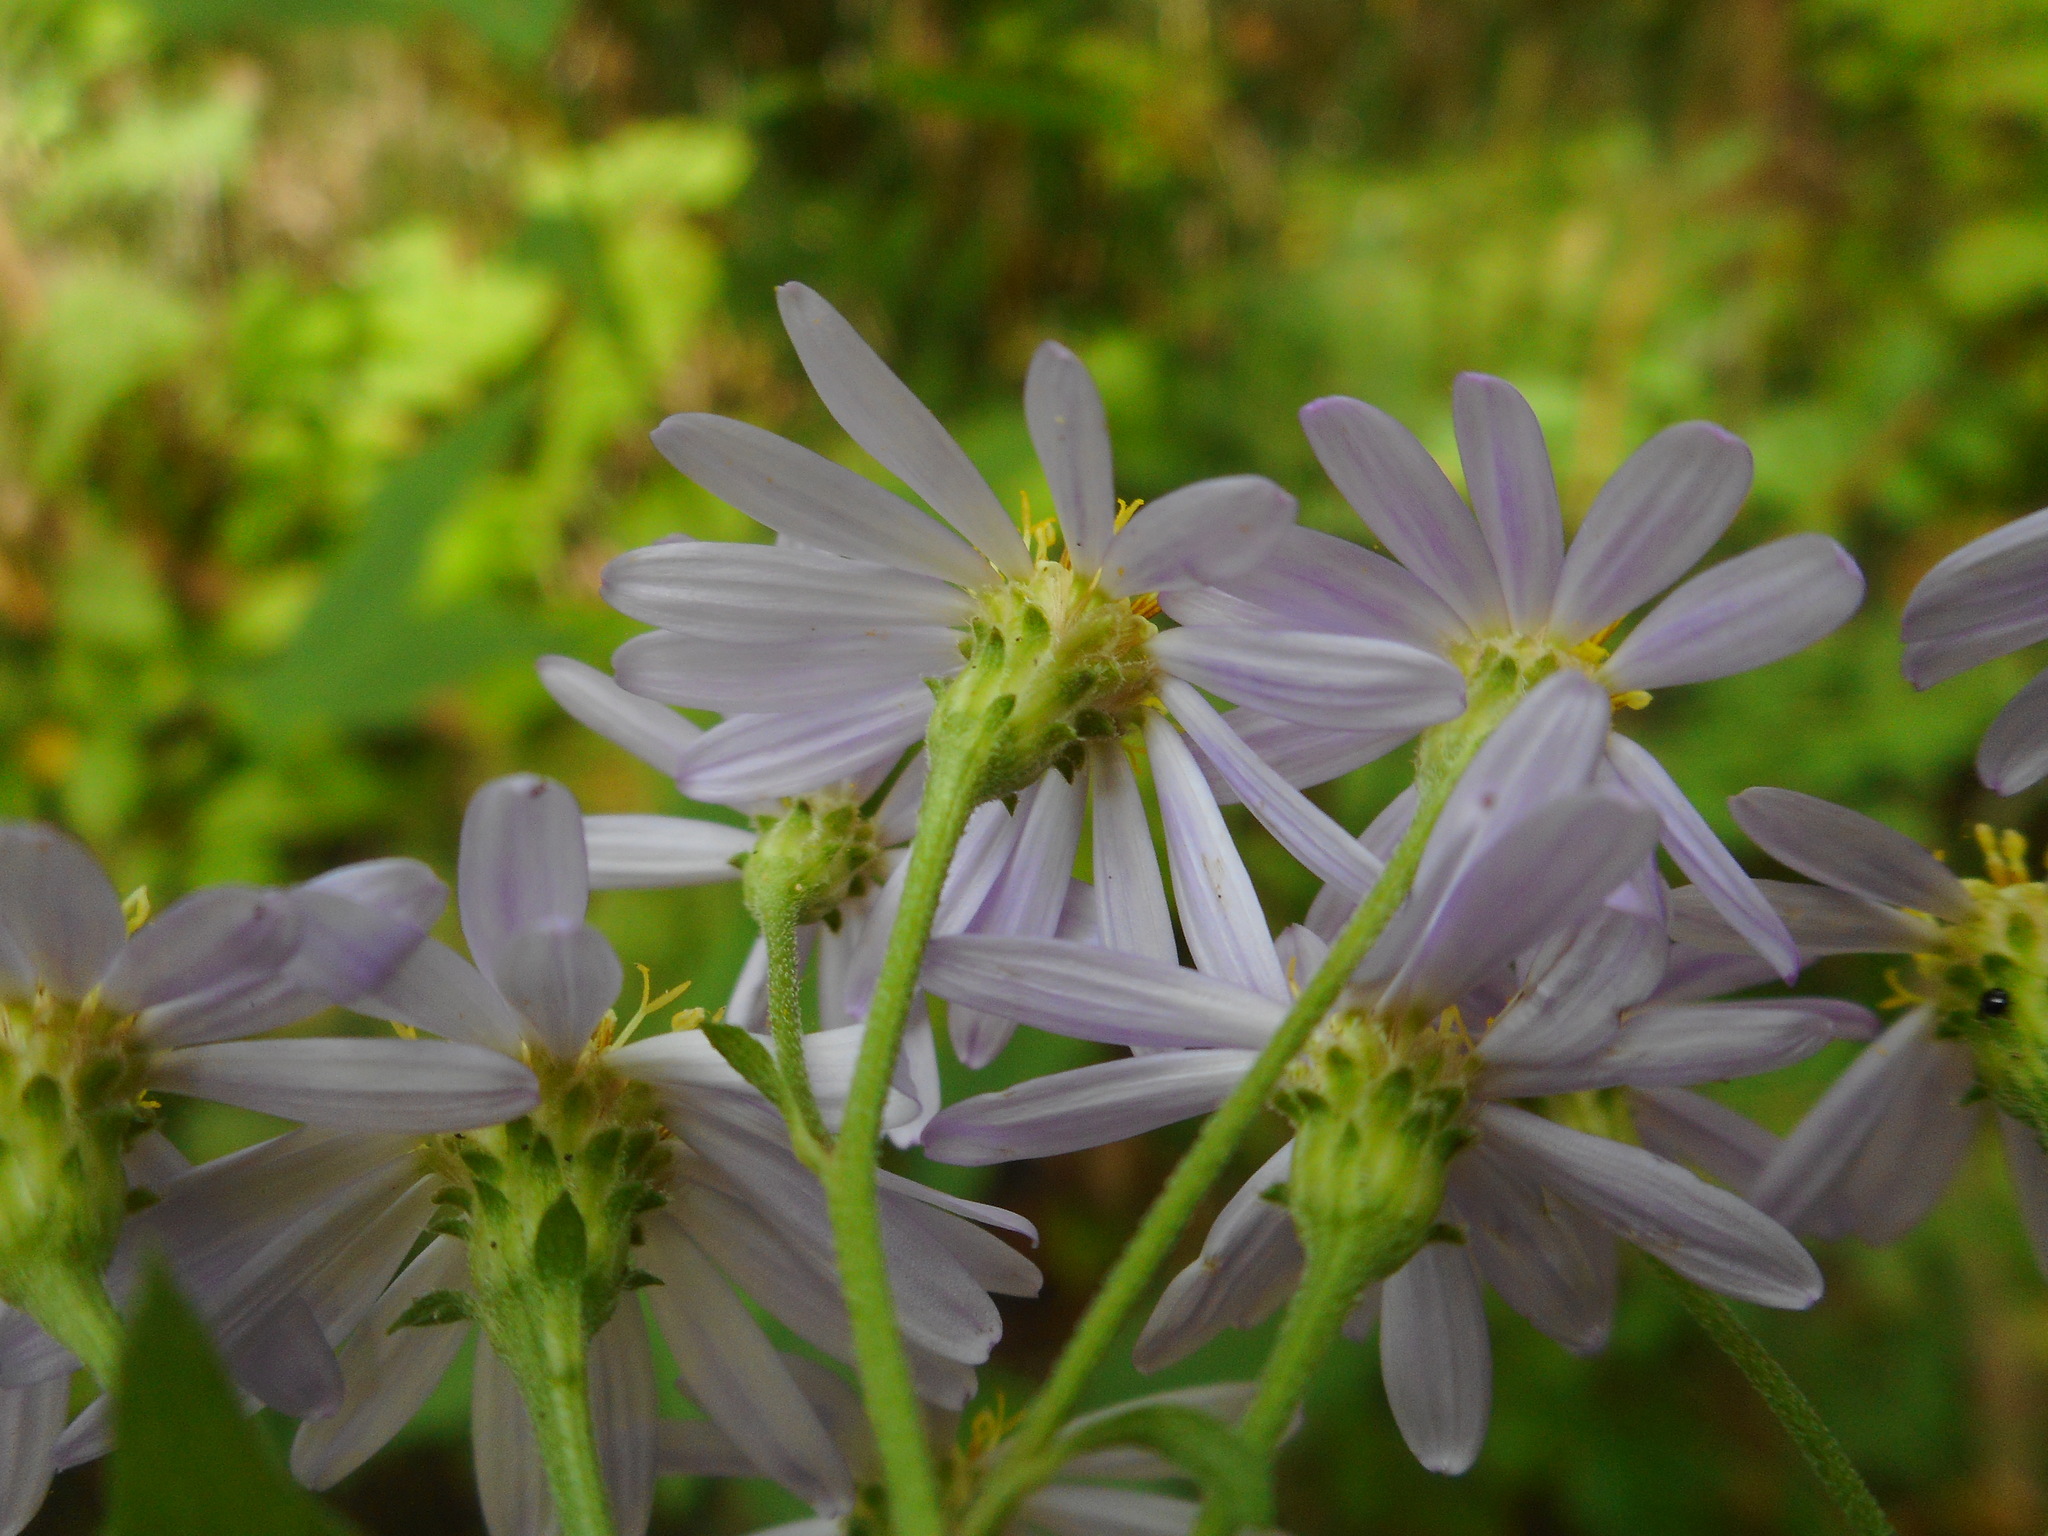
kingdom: Plantae
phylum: Tracheophyta
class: Magnoliopsida
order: Asterales
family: Asteraceae
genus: Aster
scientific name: Aster ageratoides
